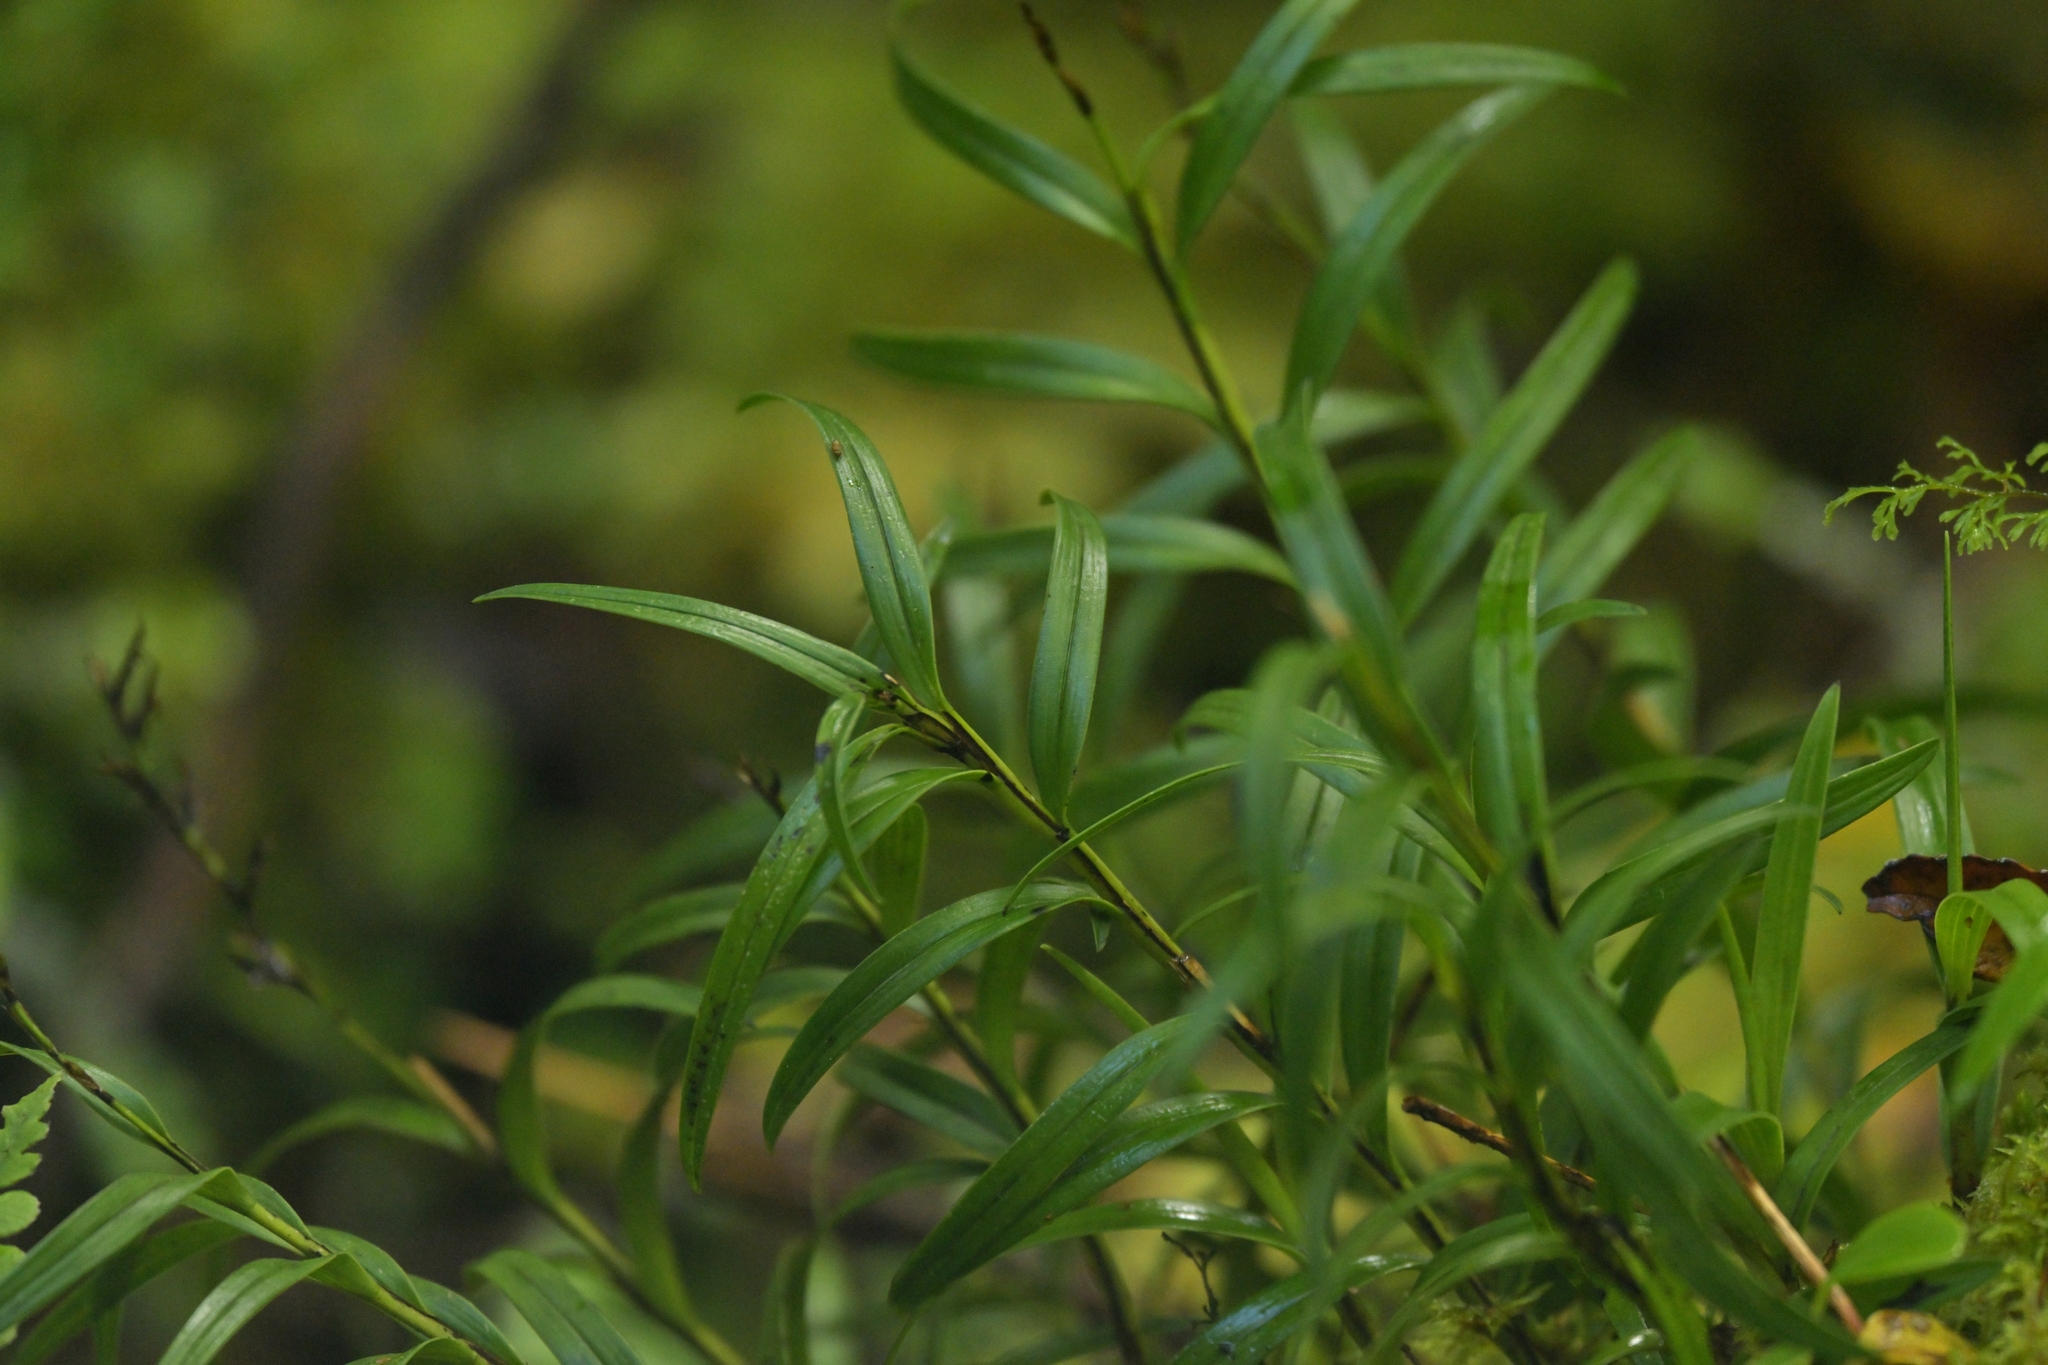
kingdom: Plantae
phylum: Tracheophyta
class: Liliopsida
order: Asparagales
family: Orchidaceae
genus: Earina
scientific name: Earina autumnalis
